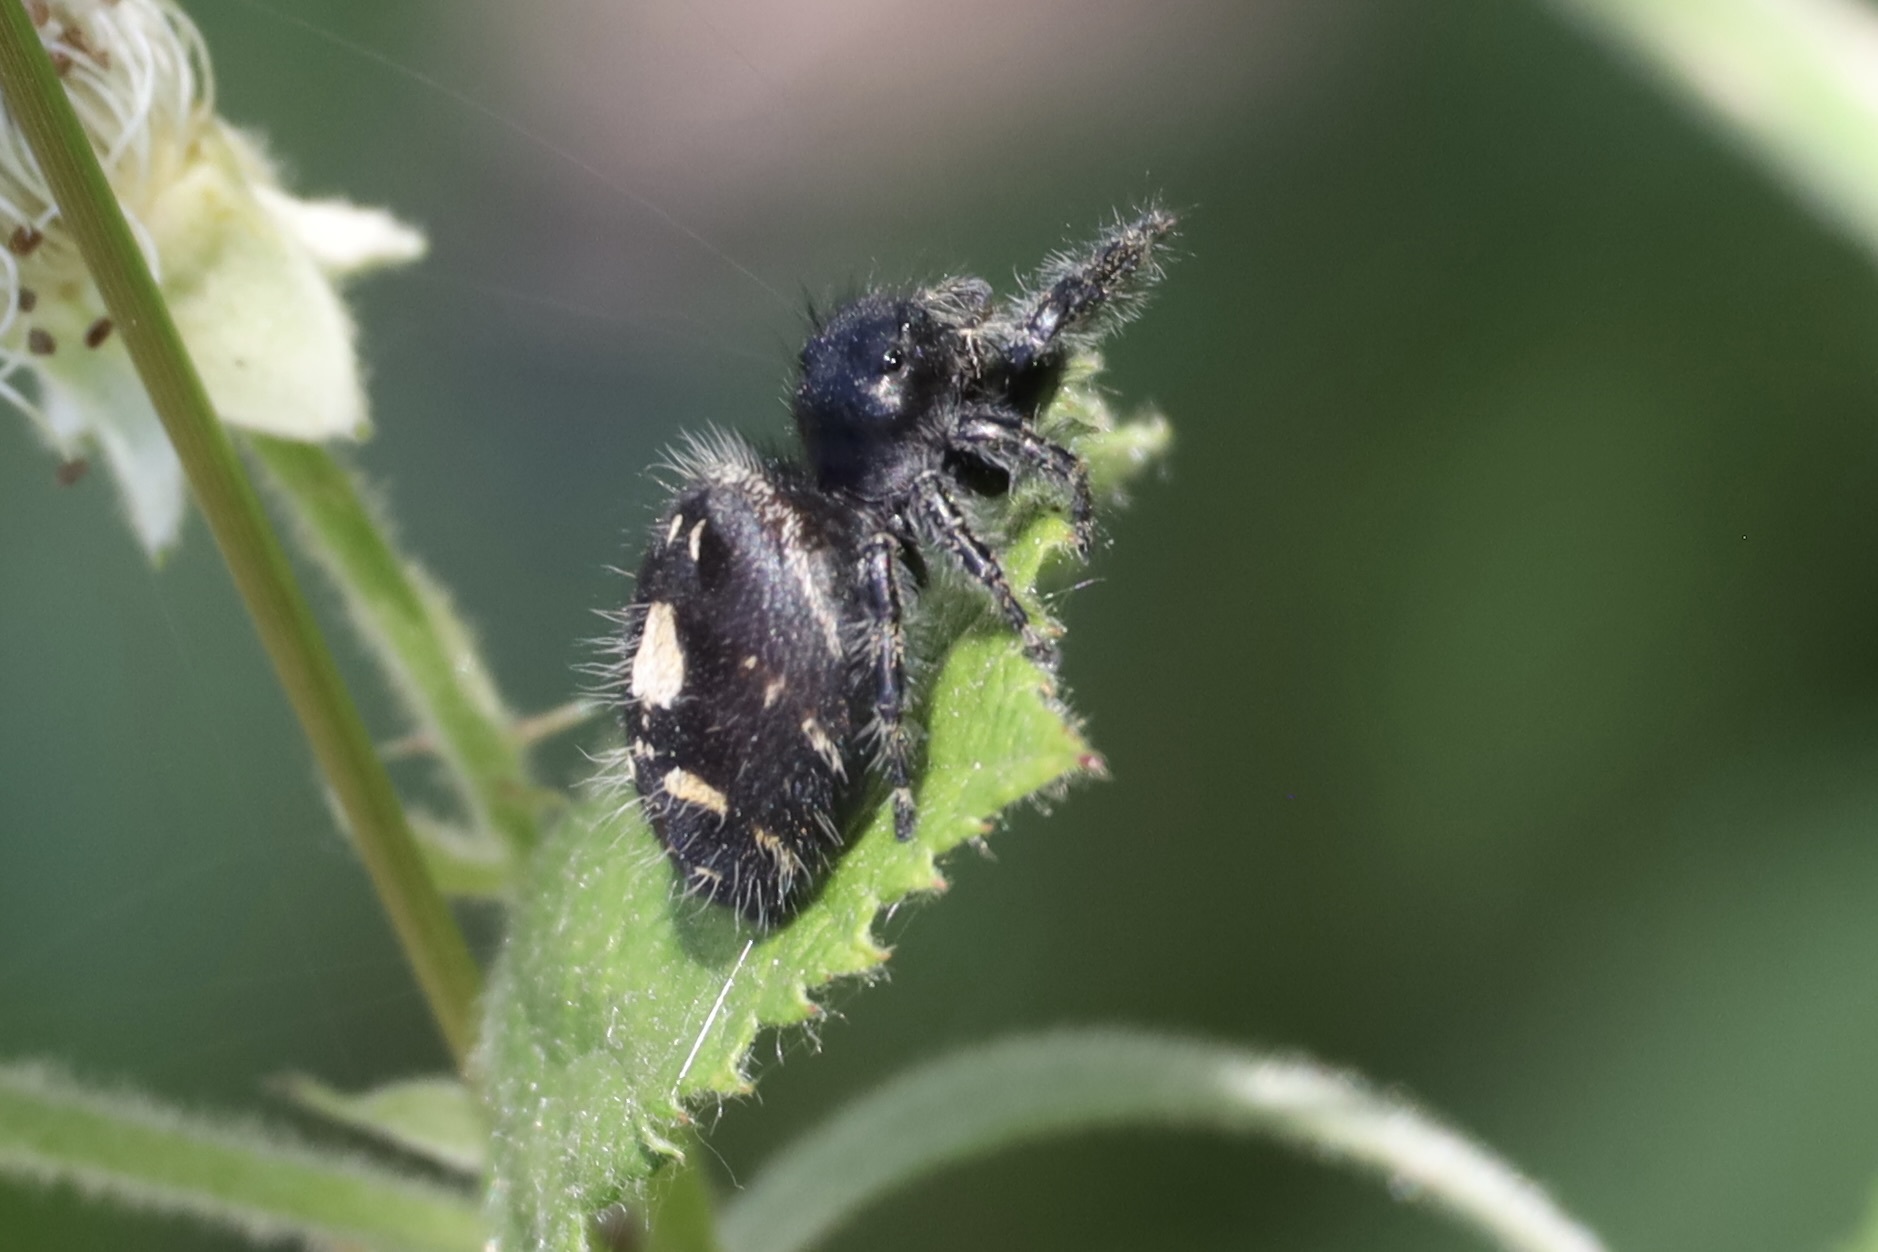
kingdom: Animalia
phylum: Arthropoda
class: Arachnida
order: Araneae
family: Salticidae
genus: Phidippus
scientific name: Phidippus audax
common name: Bold jumper
